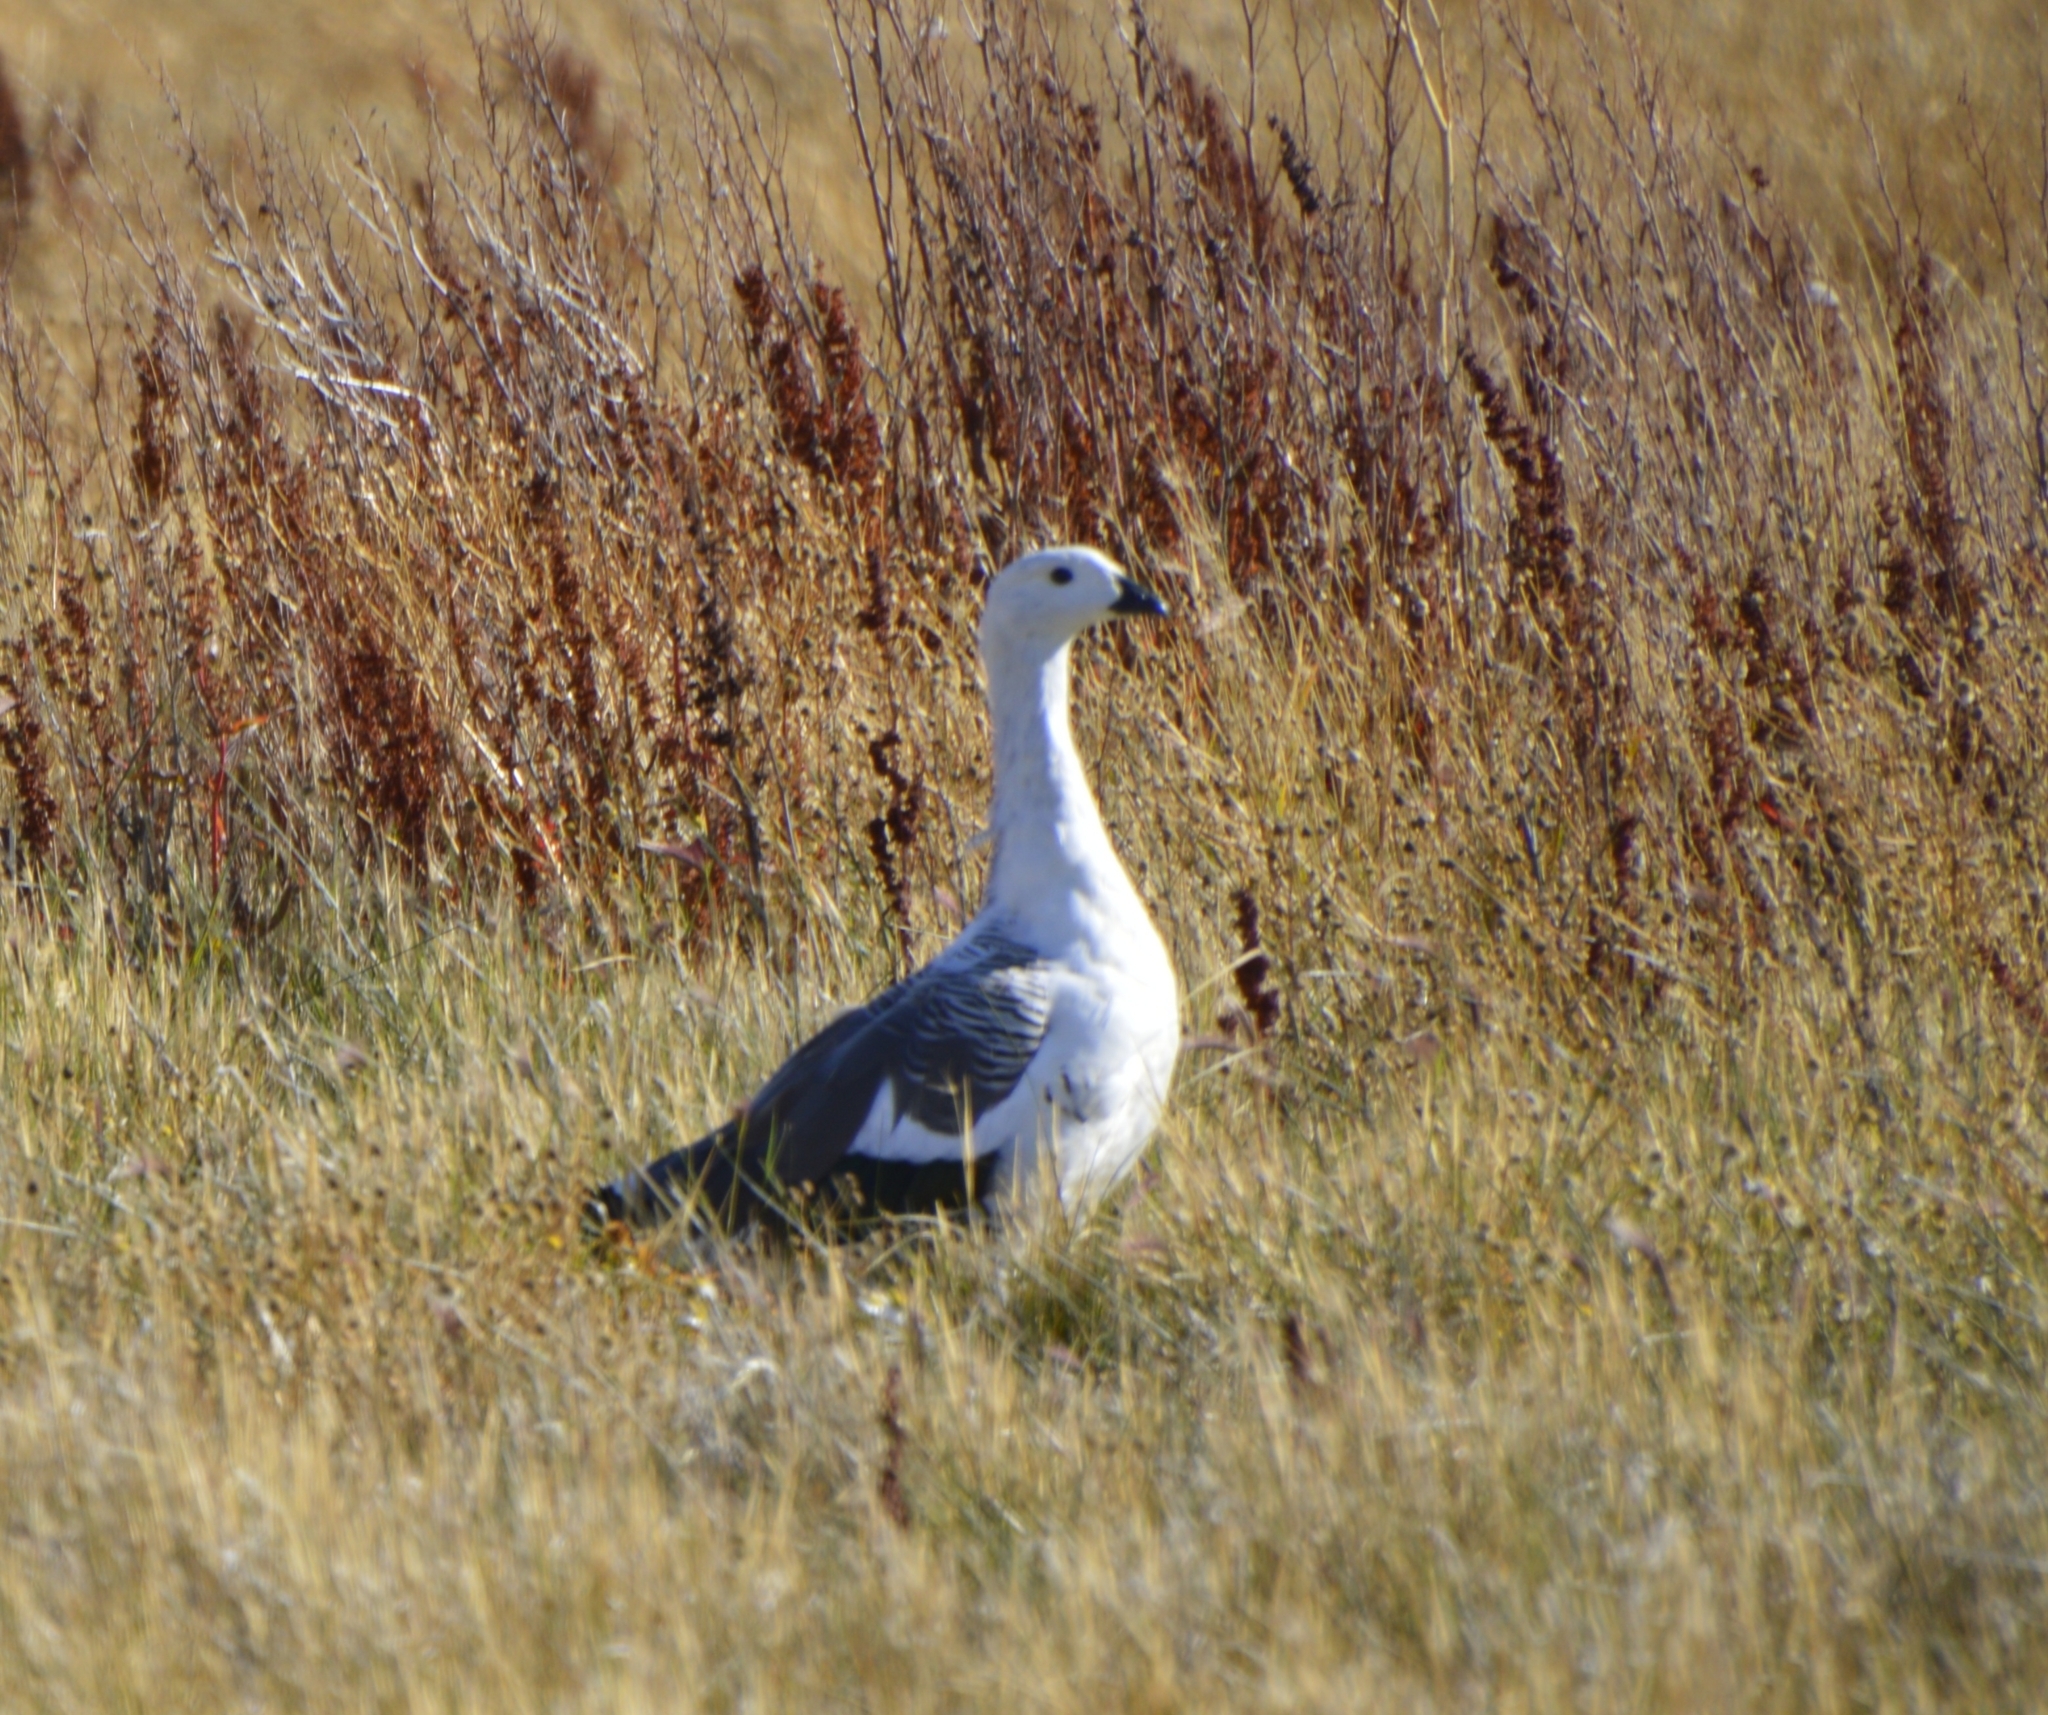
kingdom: Animalia
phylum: Chordata
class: Aves
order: Anseriformes
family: Anatidae
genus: Chloephaga
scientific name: Chloephaga picta
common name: Upland goose
